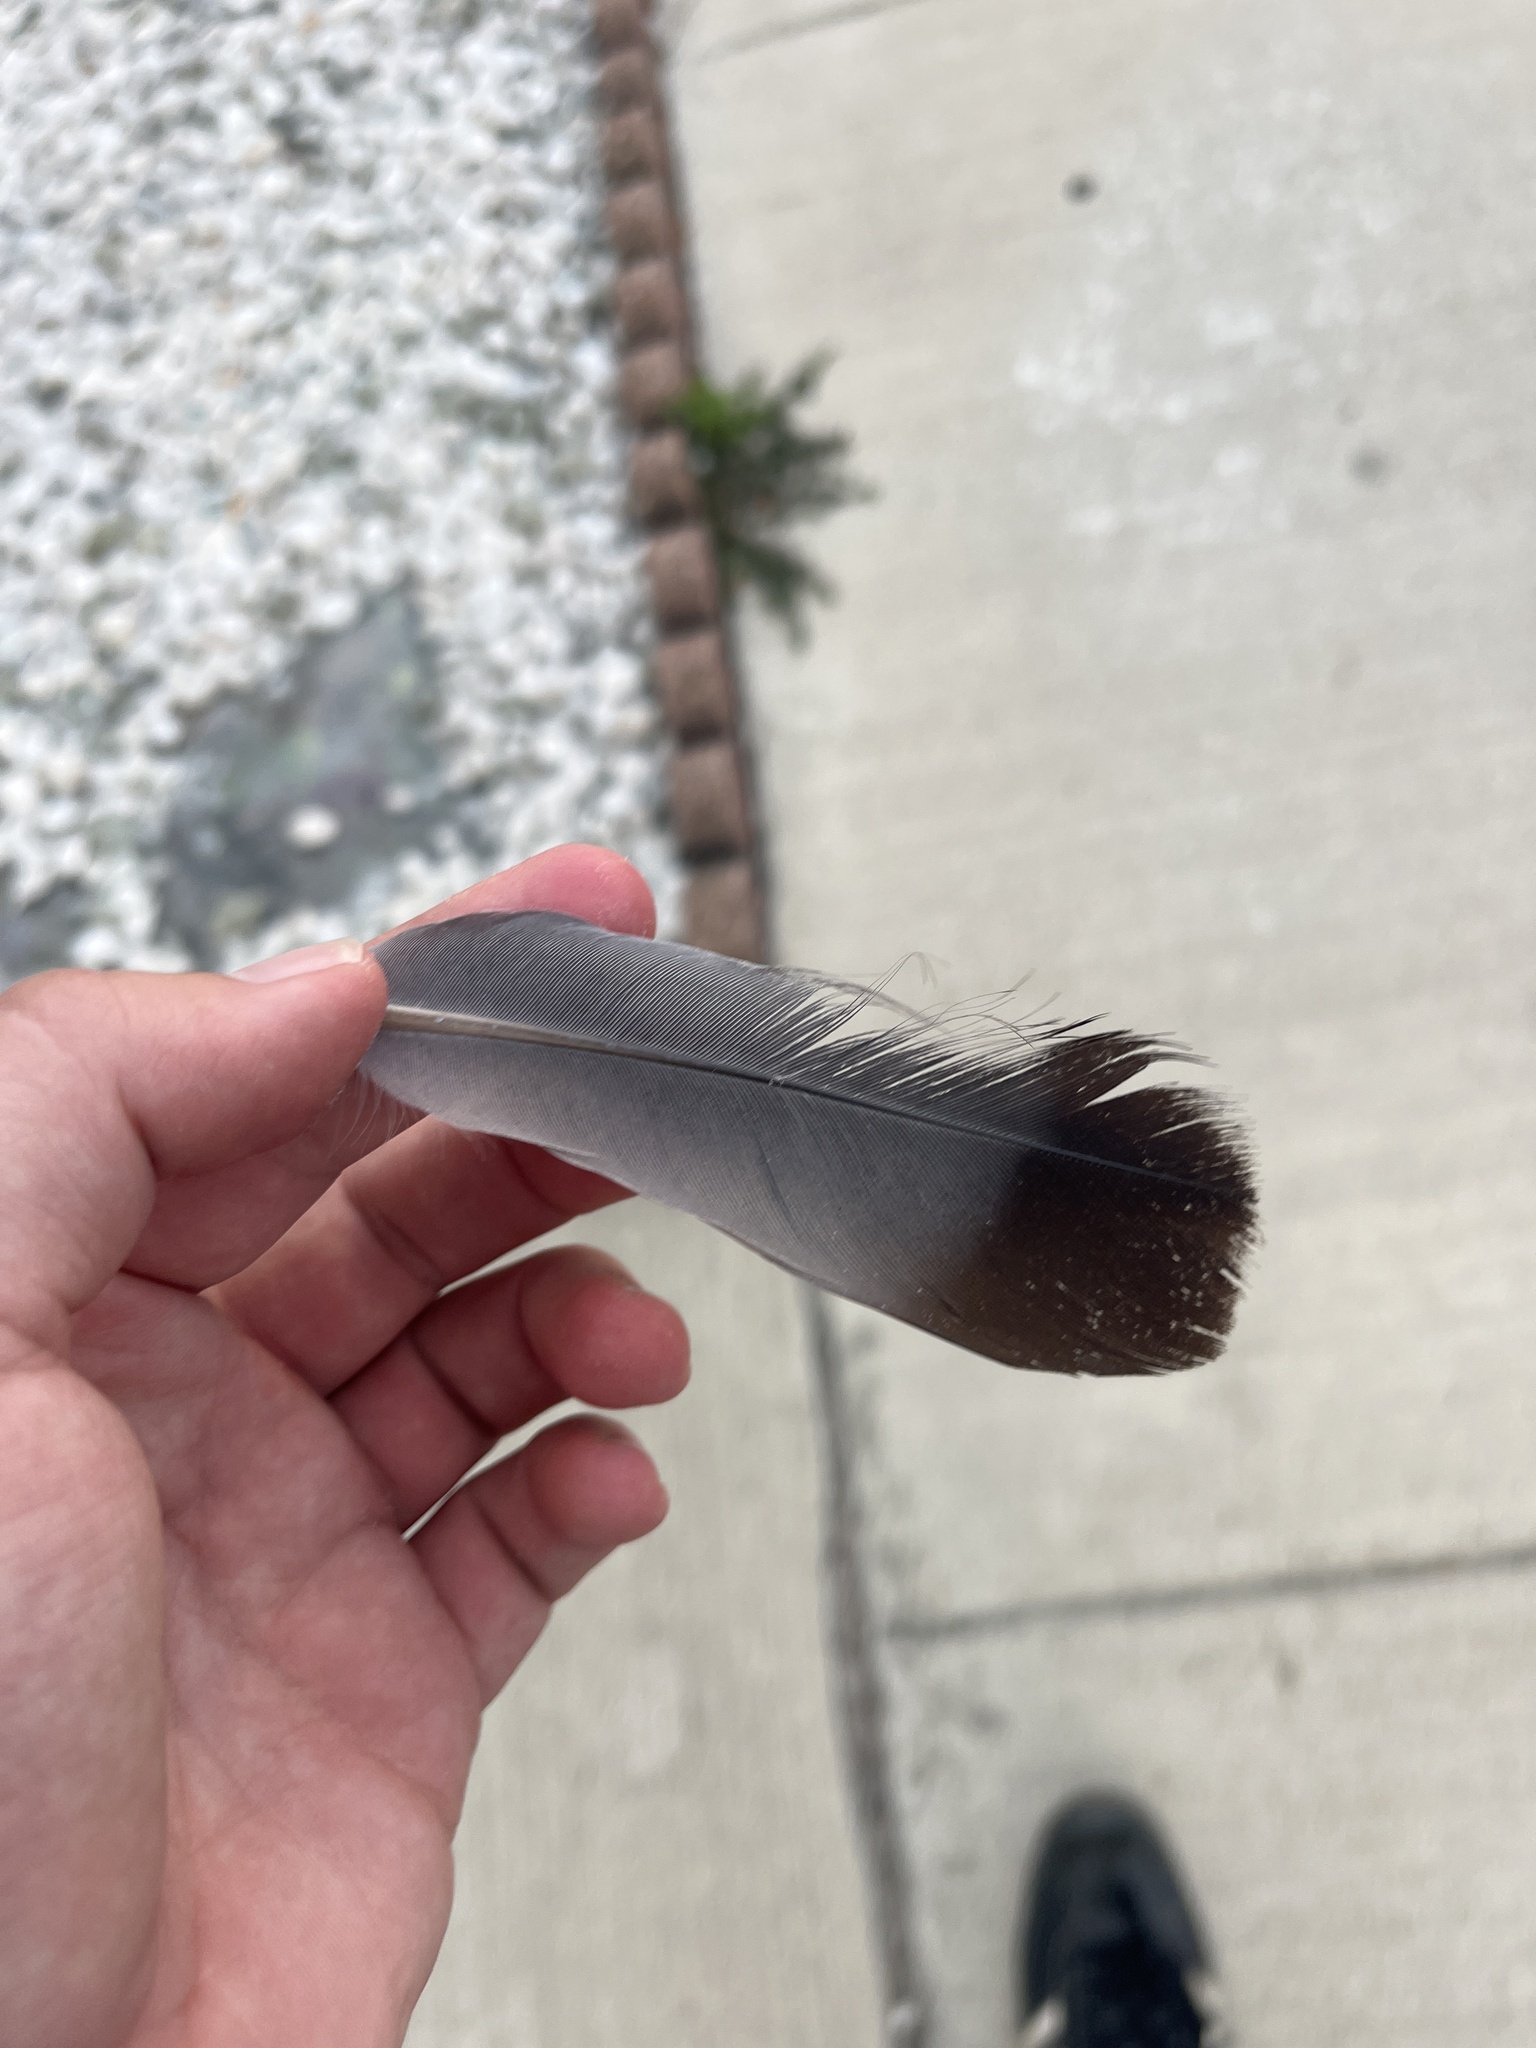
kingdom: Animalia
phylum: Chordata
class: Aves
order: Columbiformes
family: Columbidae
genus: Columba
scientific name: Columba livia
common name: Rock pigeon
